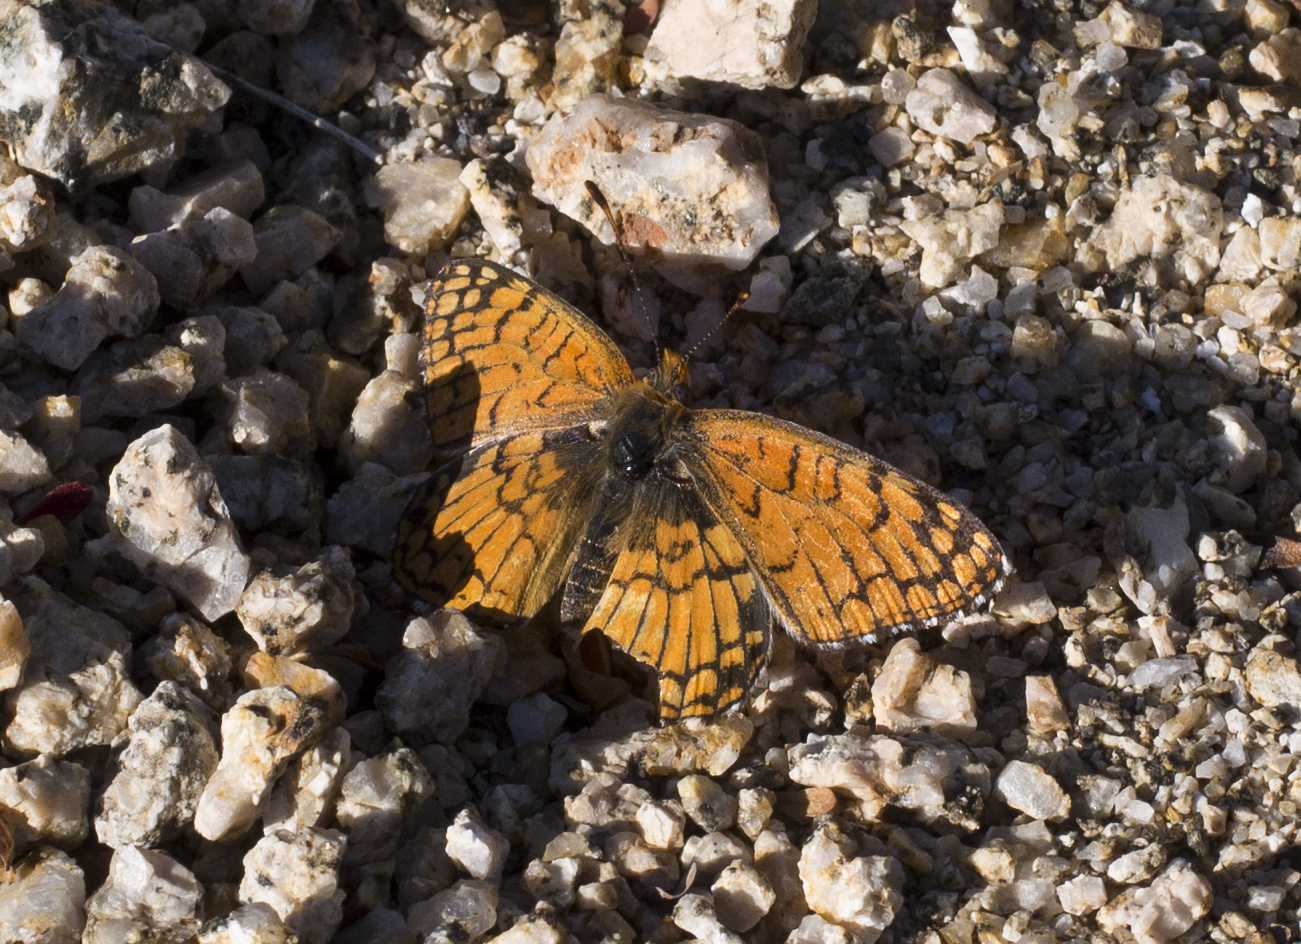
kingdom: Animalia
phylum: Arthropoda
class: Insecta
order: Lepidoptera
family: Nymphalidae
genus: Chlosyne
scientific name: Chlosyne acastus
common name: Sagebrush checkerspot
